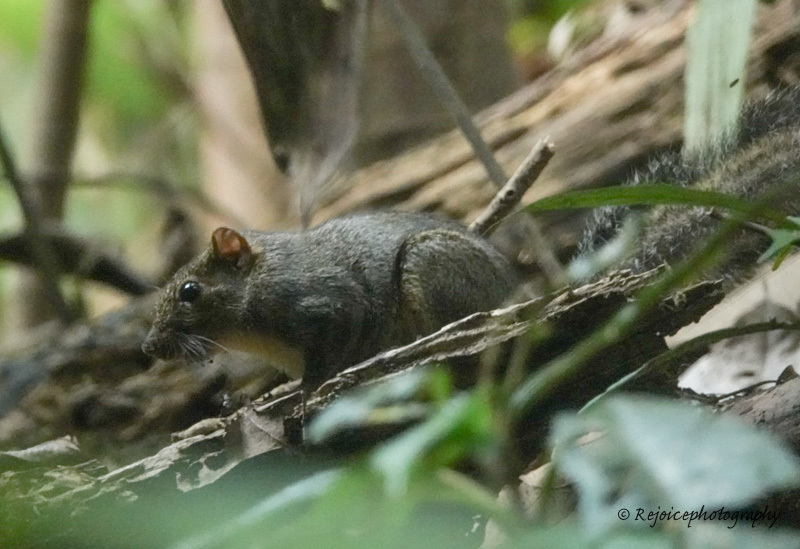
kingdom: Animalia
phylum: Chordata
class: Mammalia
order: Rodentia
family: Sciuridae
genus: Dremomys
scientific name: Dremomys lokriah
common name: Orange-bellied himalayan squirrel
